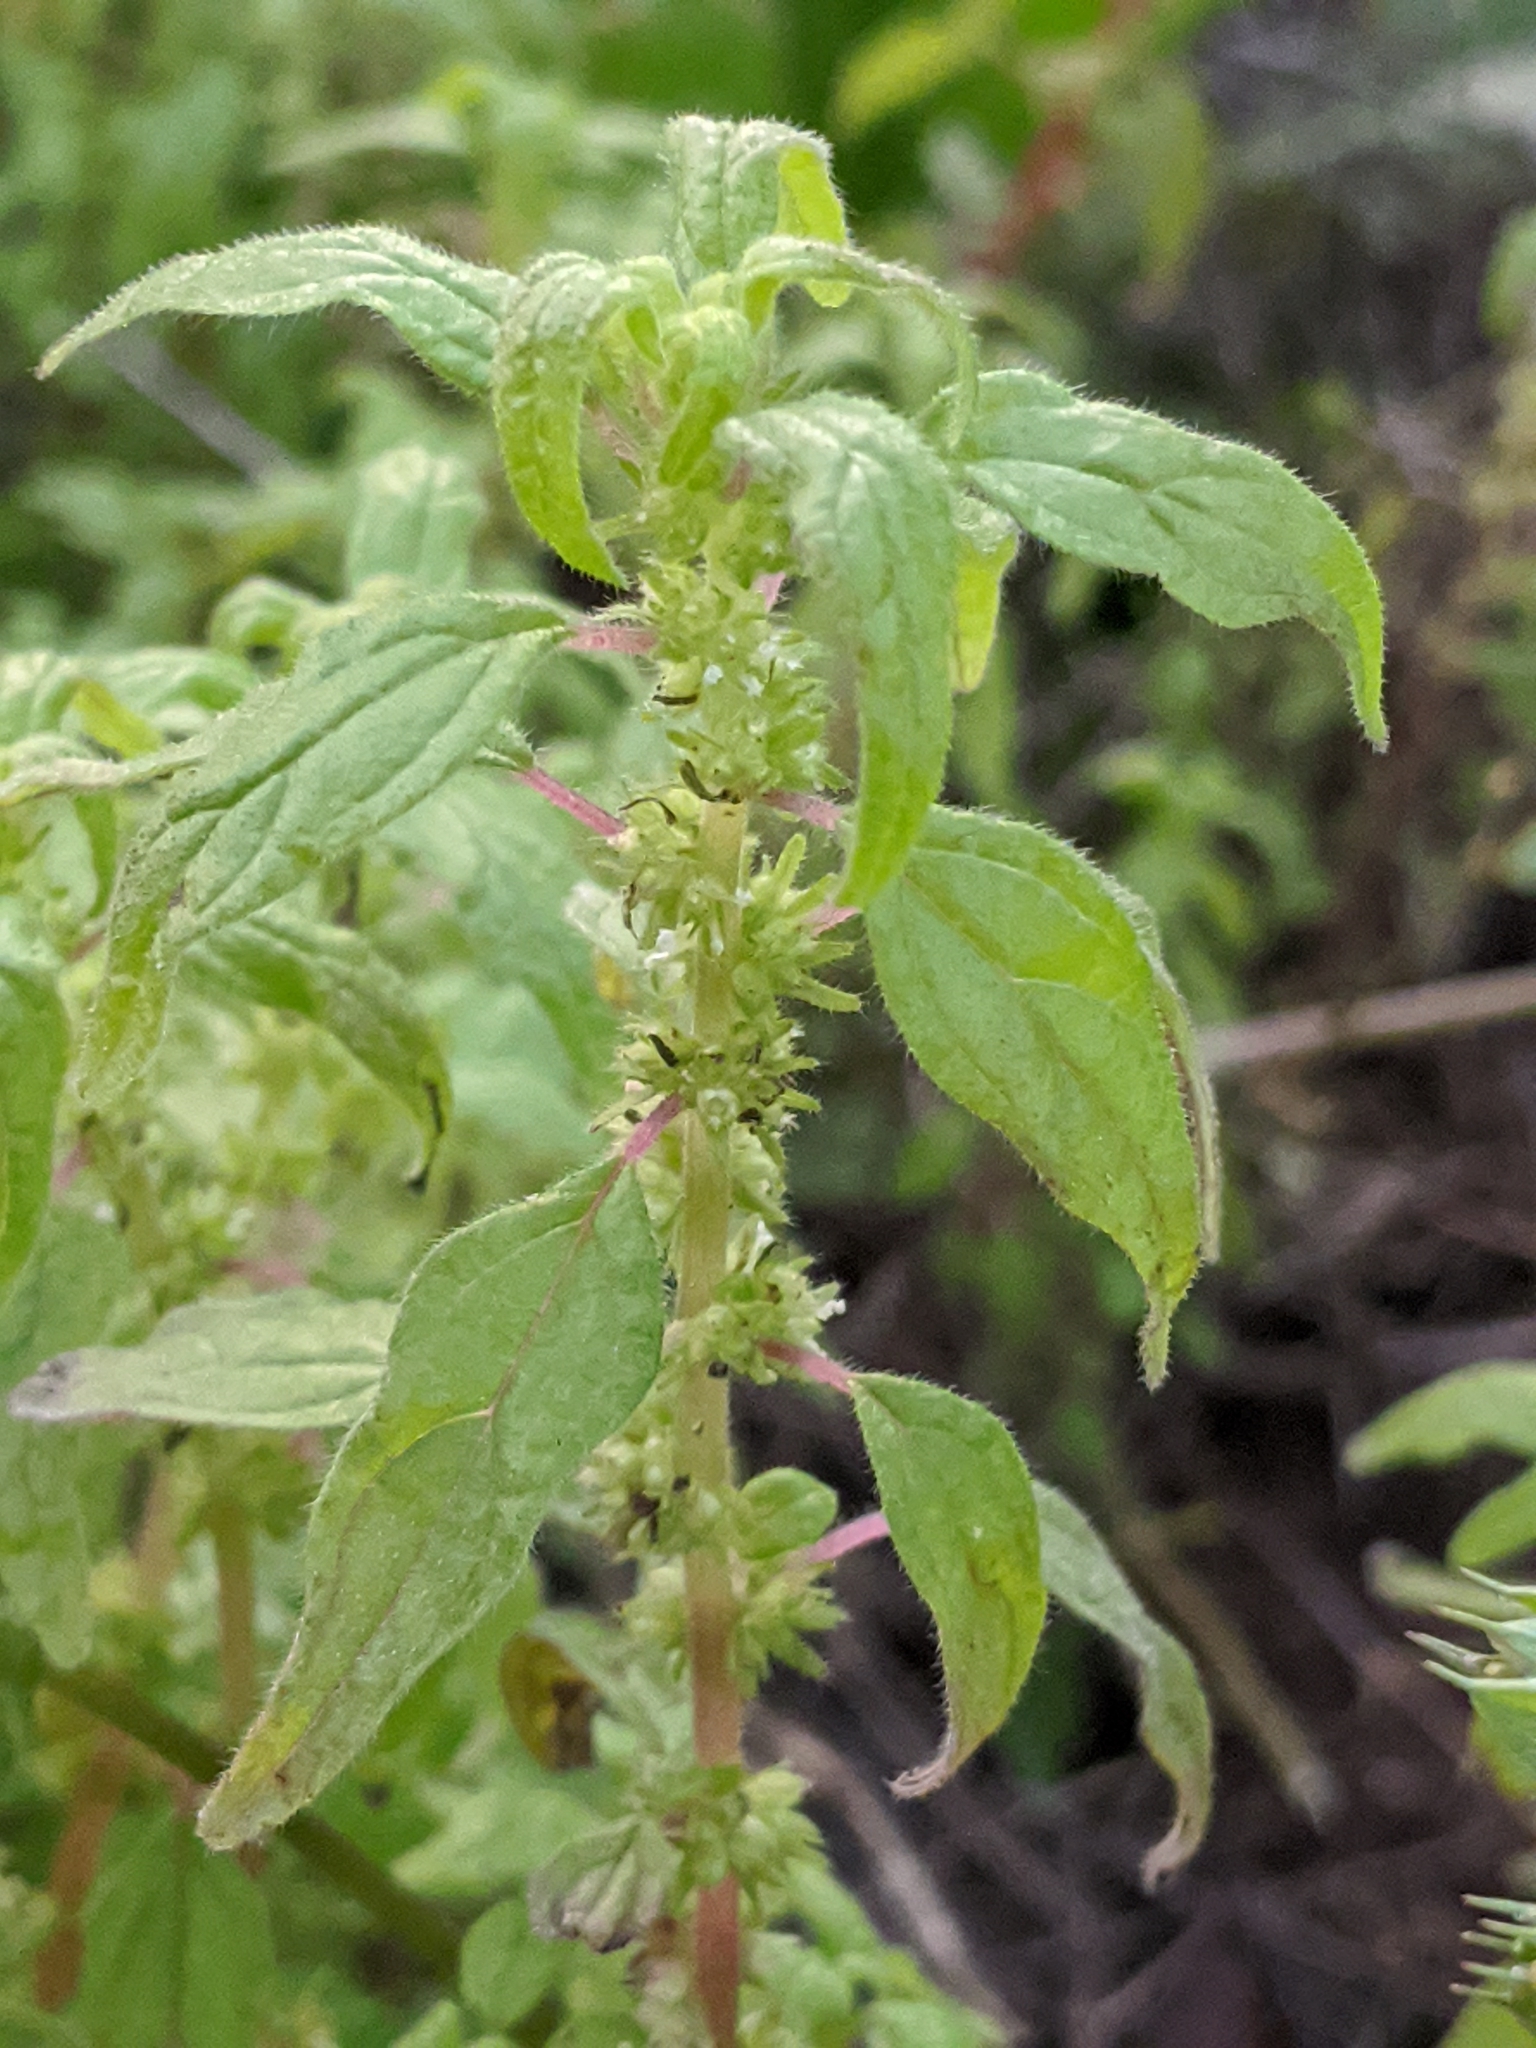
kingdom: Plantae
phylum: Tracheophyta
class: Magnoliopsida
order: Rosales
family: Urticaceae
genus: Parietaria
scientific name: Parietaria pensylvanica
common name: Pennsylvania pellitory
